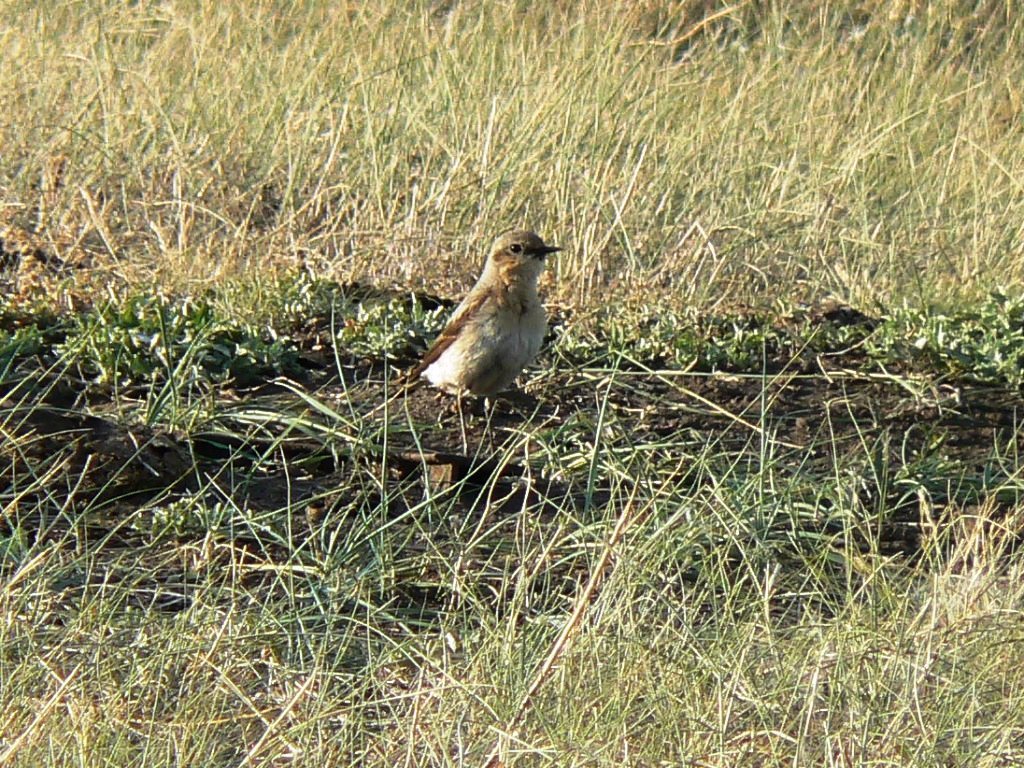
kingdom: Animalia
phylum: Chordata
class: Aves
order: Passeriformes
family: Muscicapidae
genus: Oenanthe
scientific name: Oenanthe oenanthe
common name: Northern wheatear
